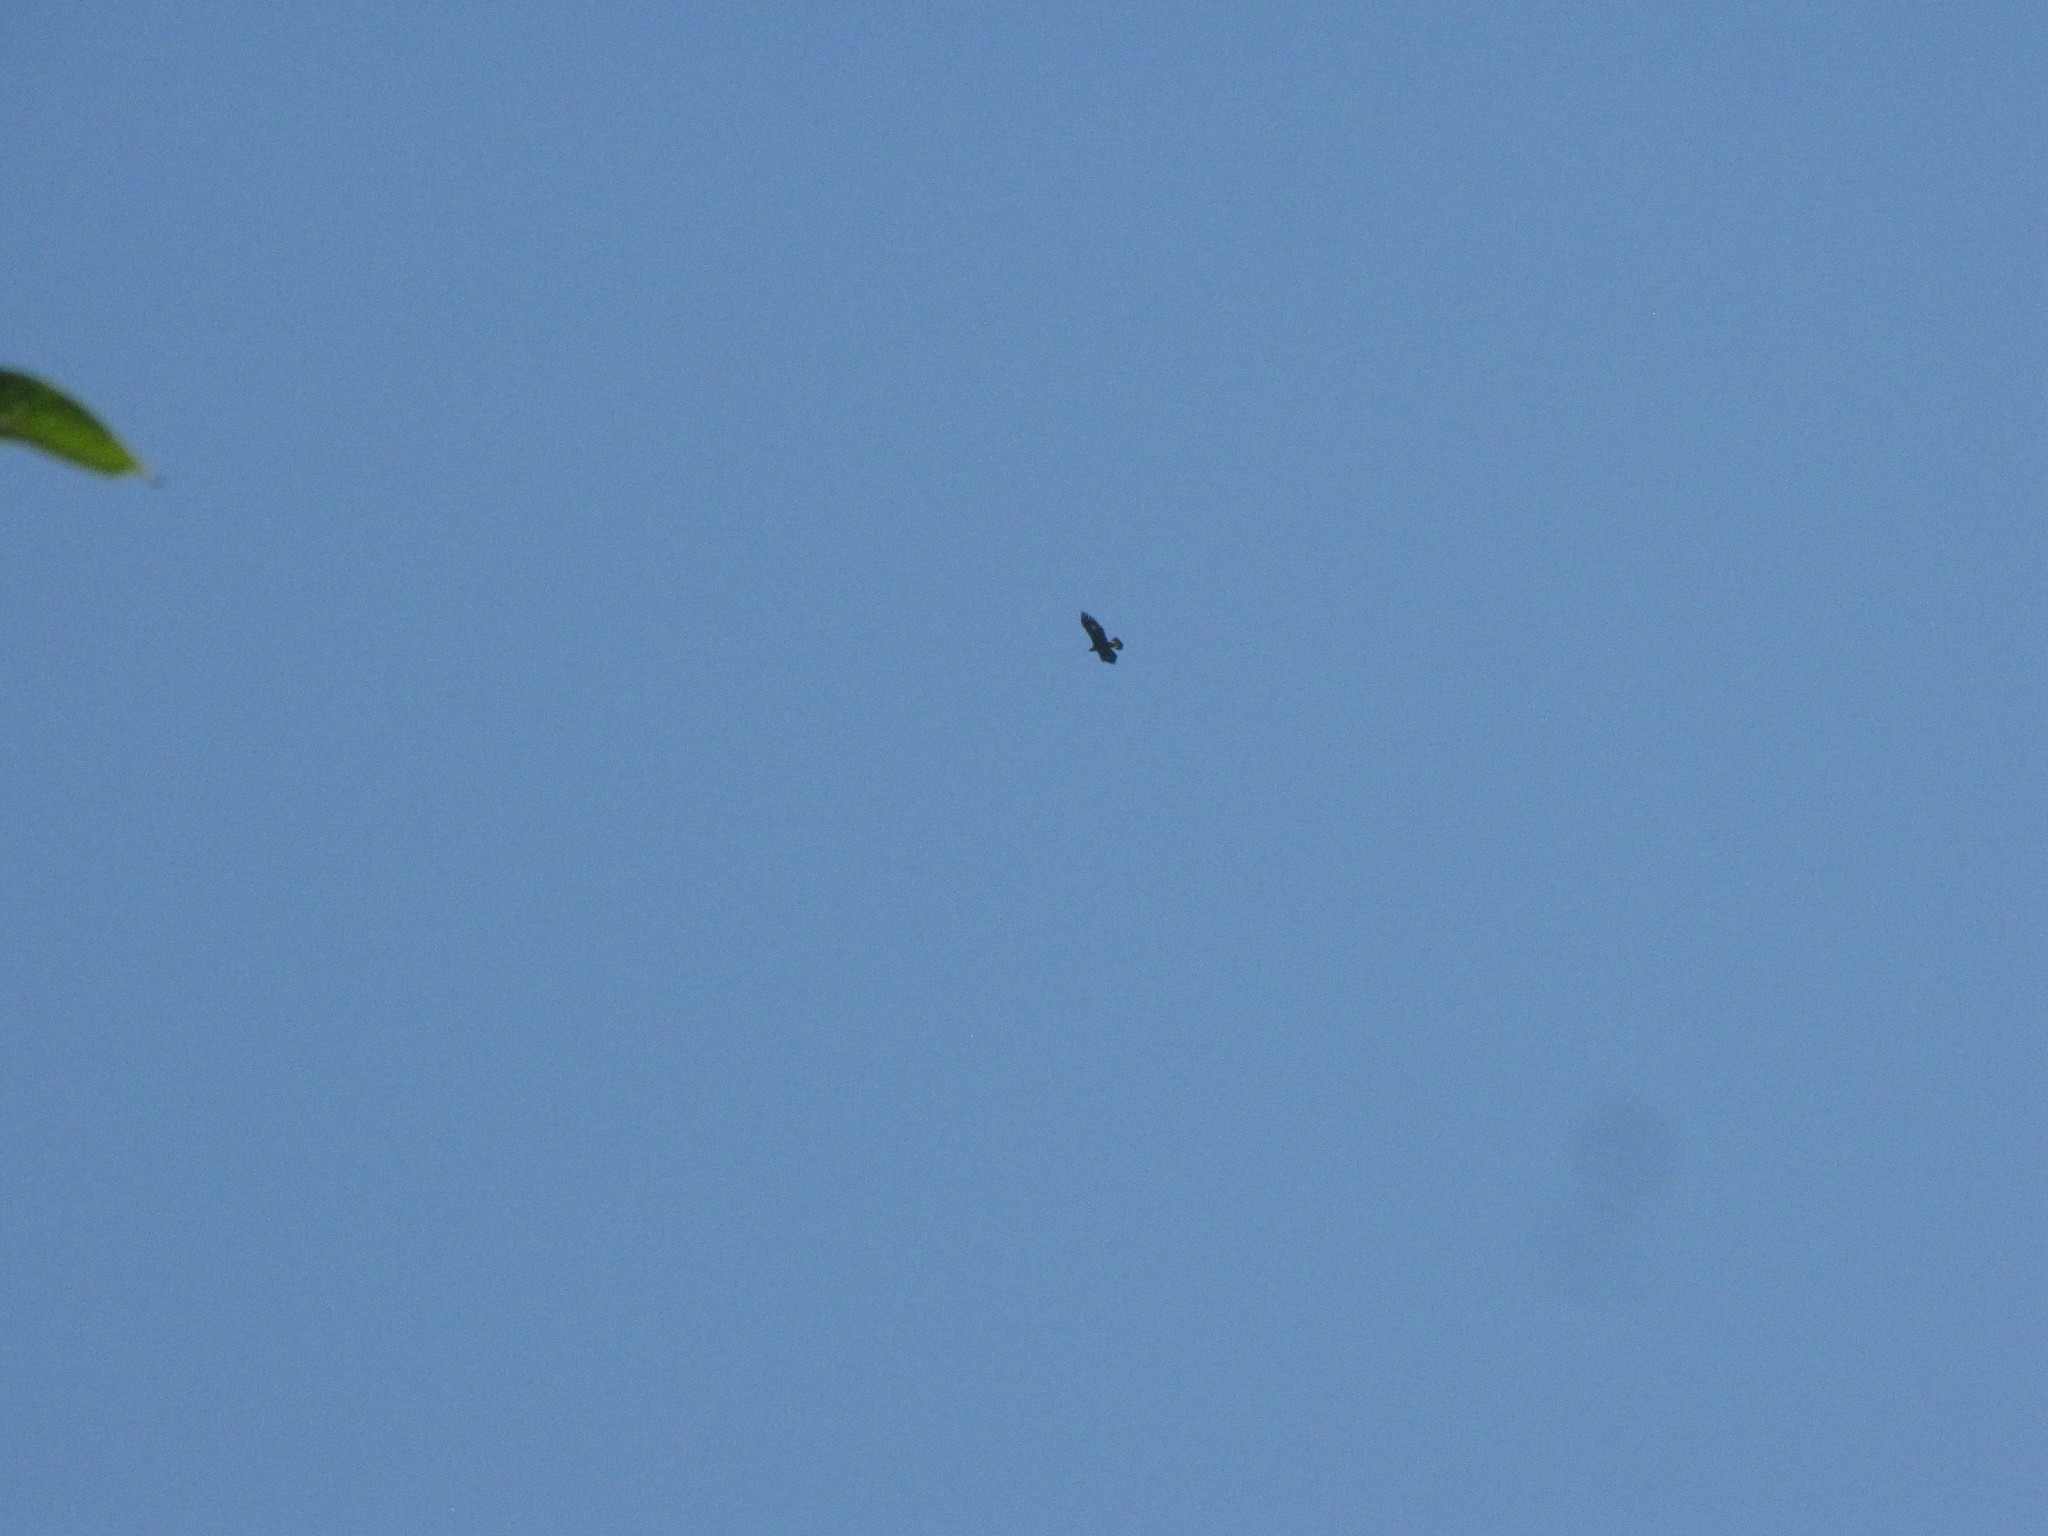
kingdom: Animalia
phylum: Chordata
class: Aves
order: Accipitriformes
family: Accipitridae
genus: Aquila
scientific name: Aquila chrysaetos
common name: Golden eagle
